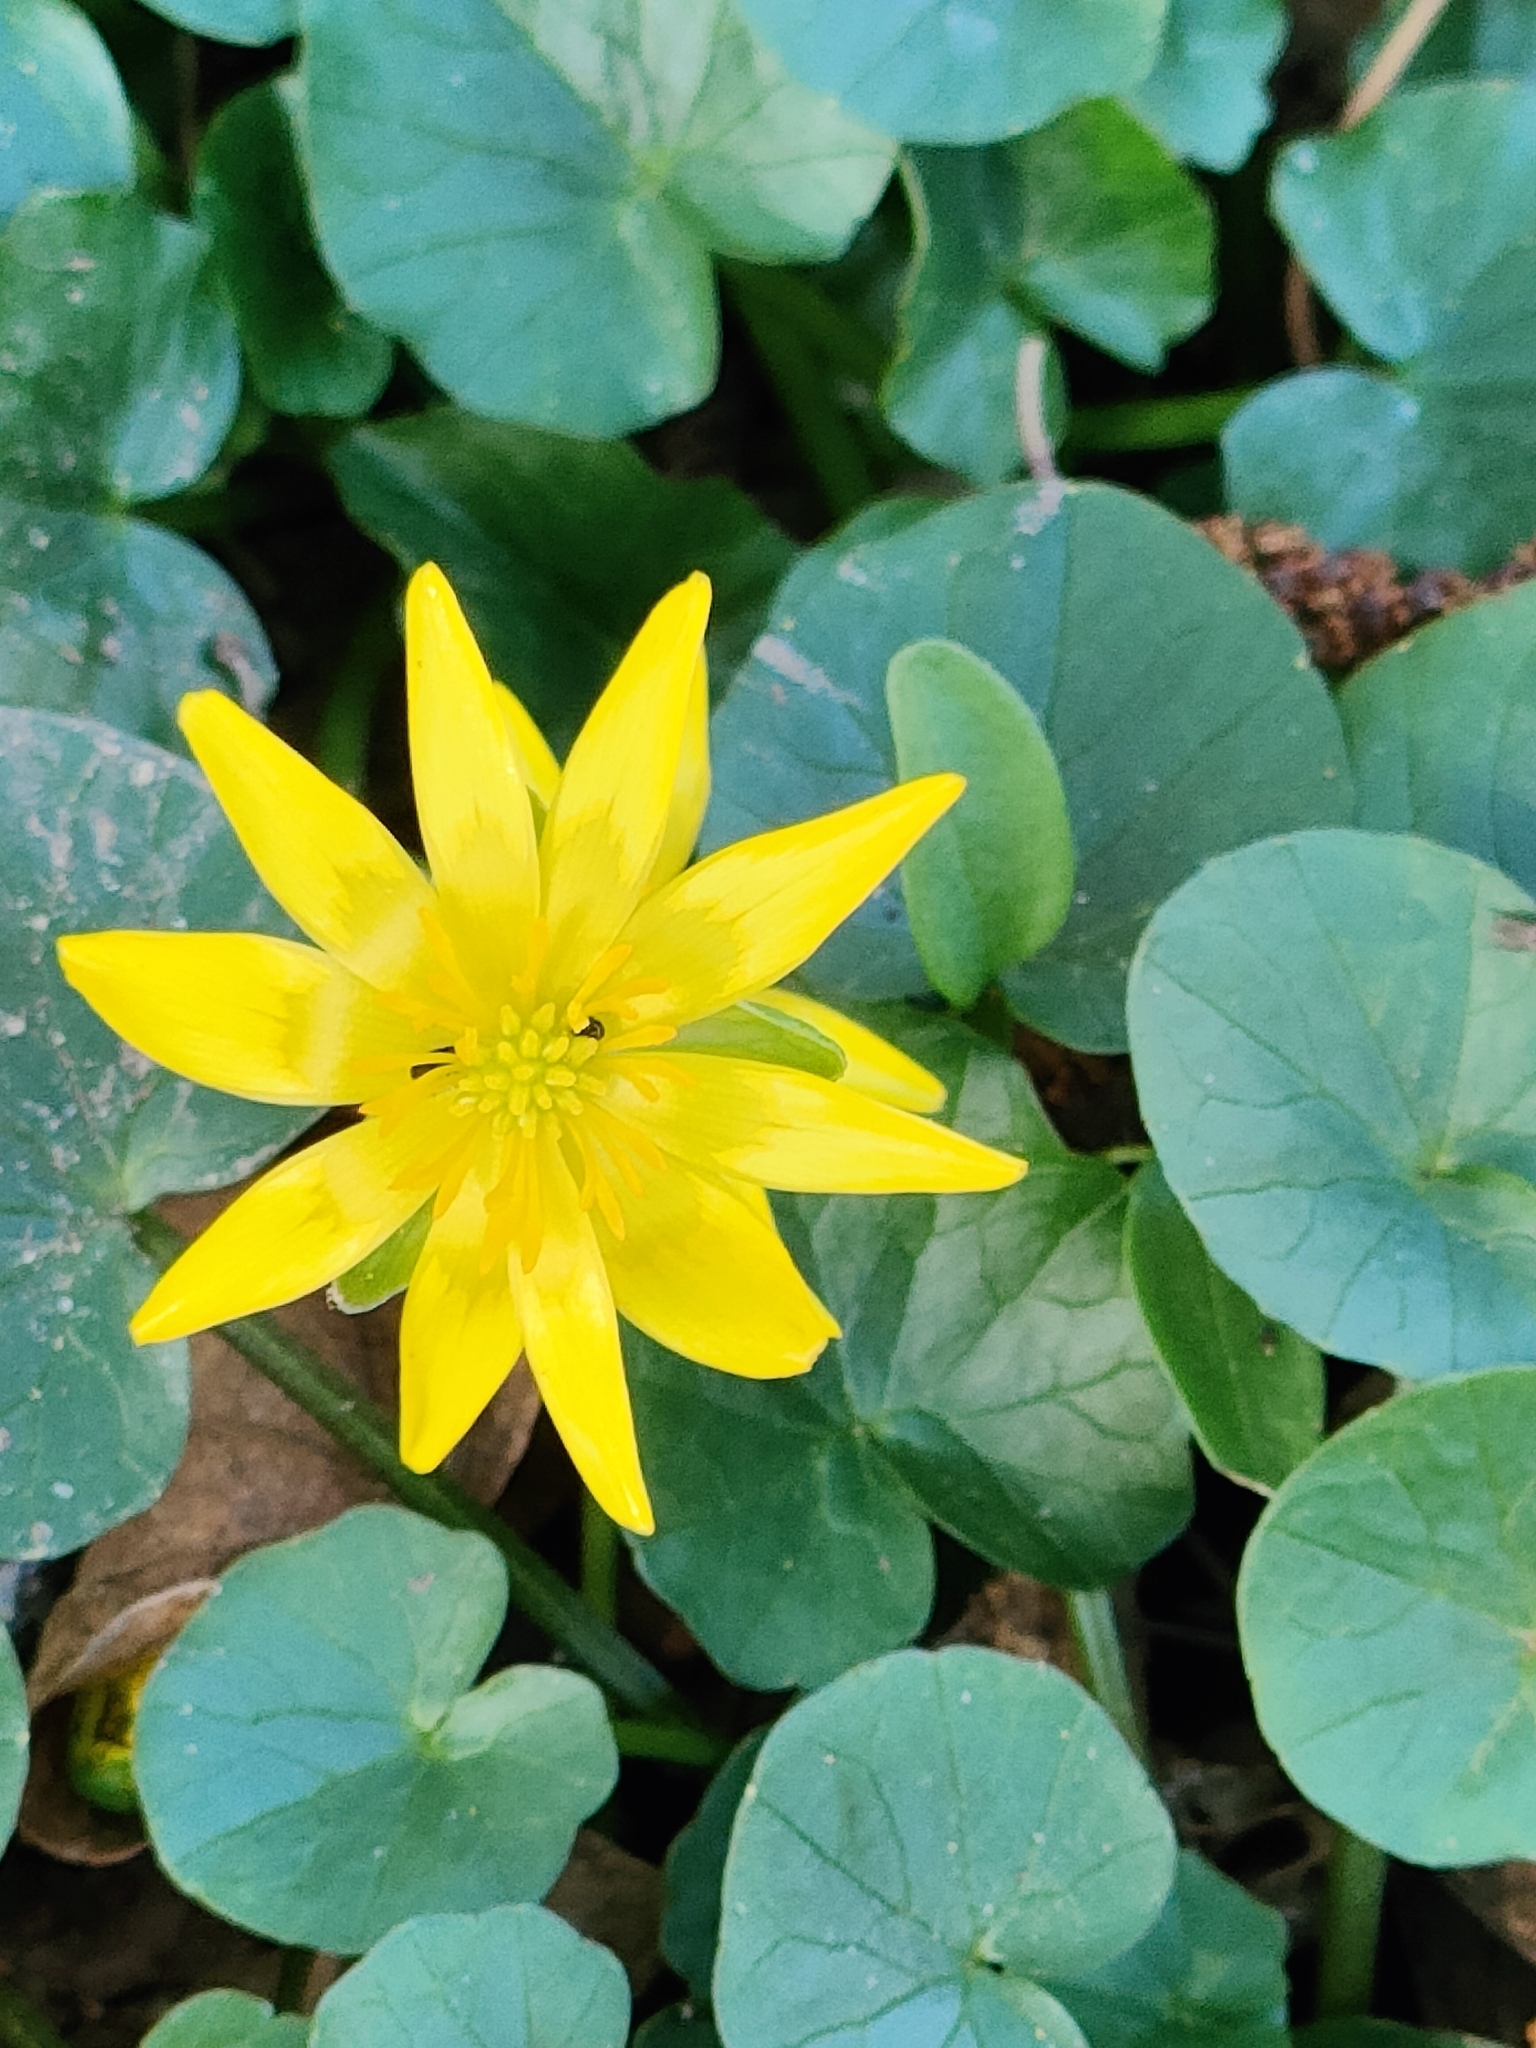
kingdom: Plantae
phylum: Tracheophyta
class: Magnoliopsida
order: Ranunculales
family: Ranunculaceae
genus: Ficaria
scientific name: Ficaria verna
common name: Lesser celandine
